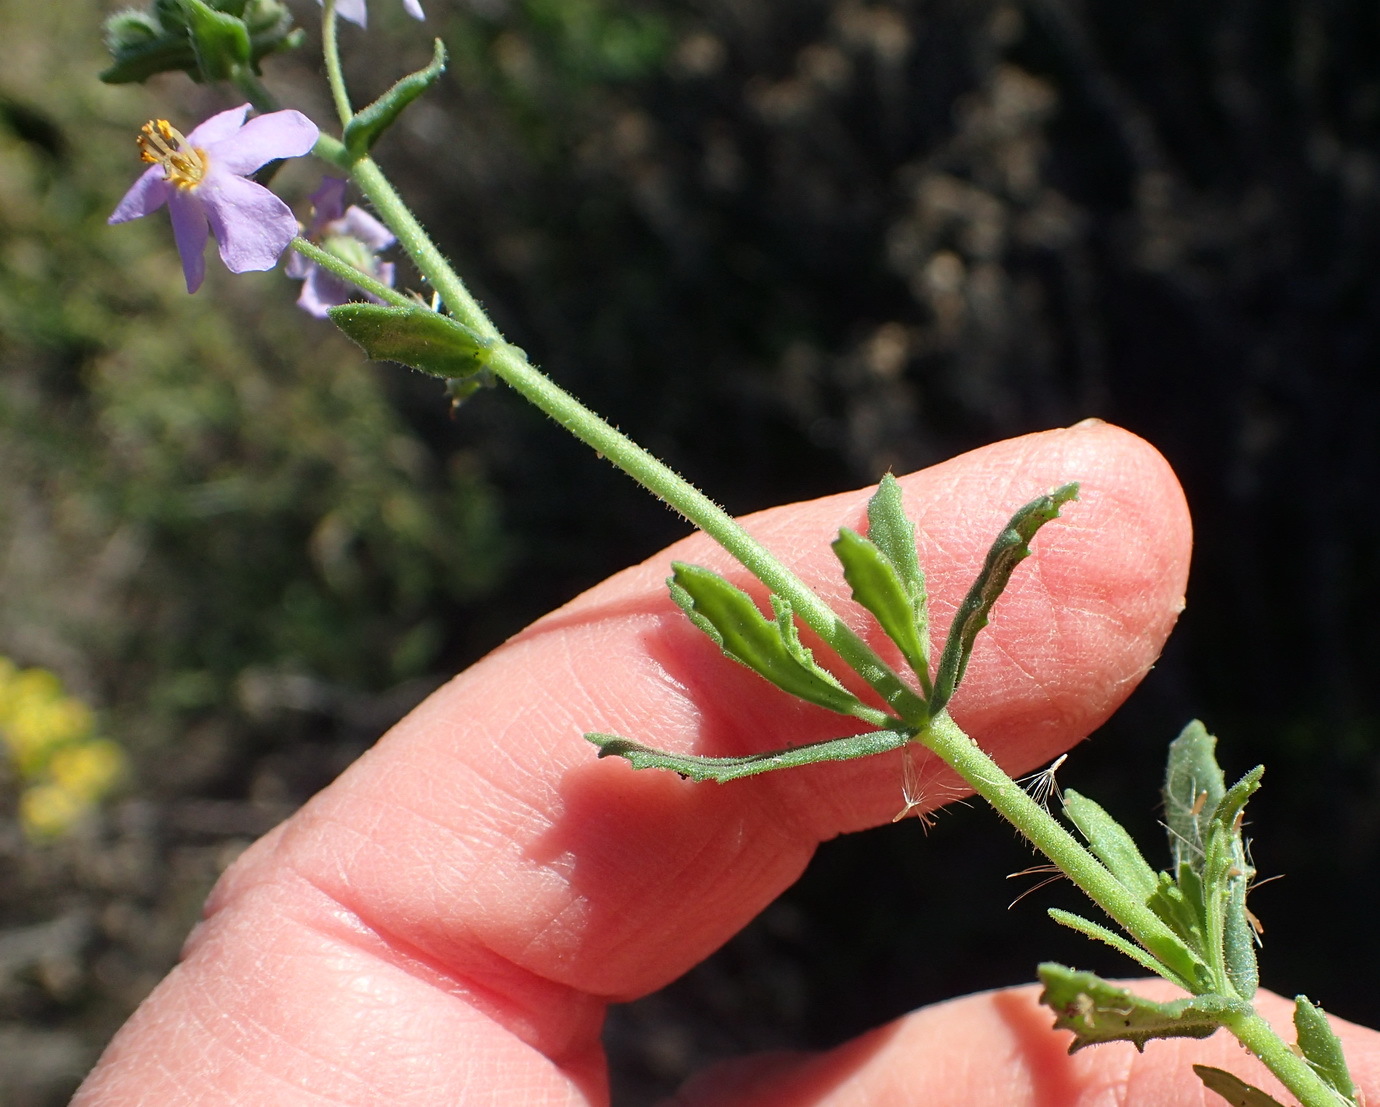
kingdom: Plantae
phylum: Tracheophyta
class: Magnoliopsida
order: Lamiales
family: Scrophulariaceae
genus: Chaenostoma
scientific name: Chaenostoma caeruleum
